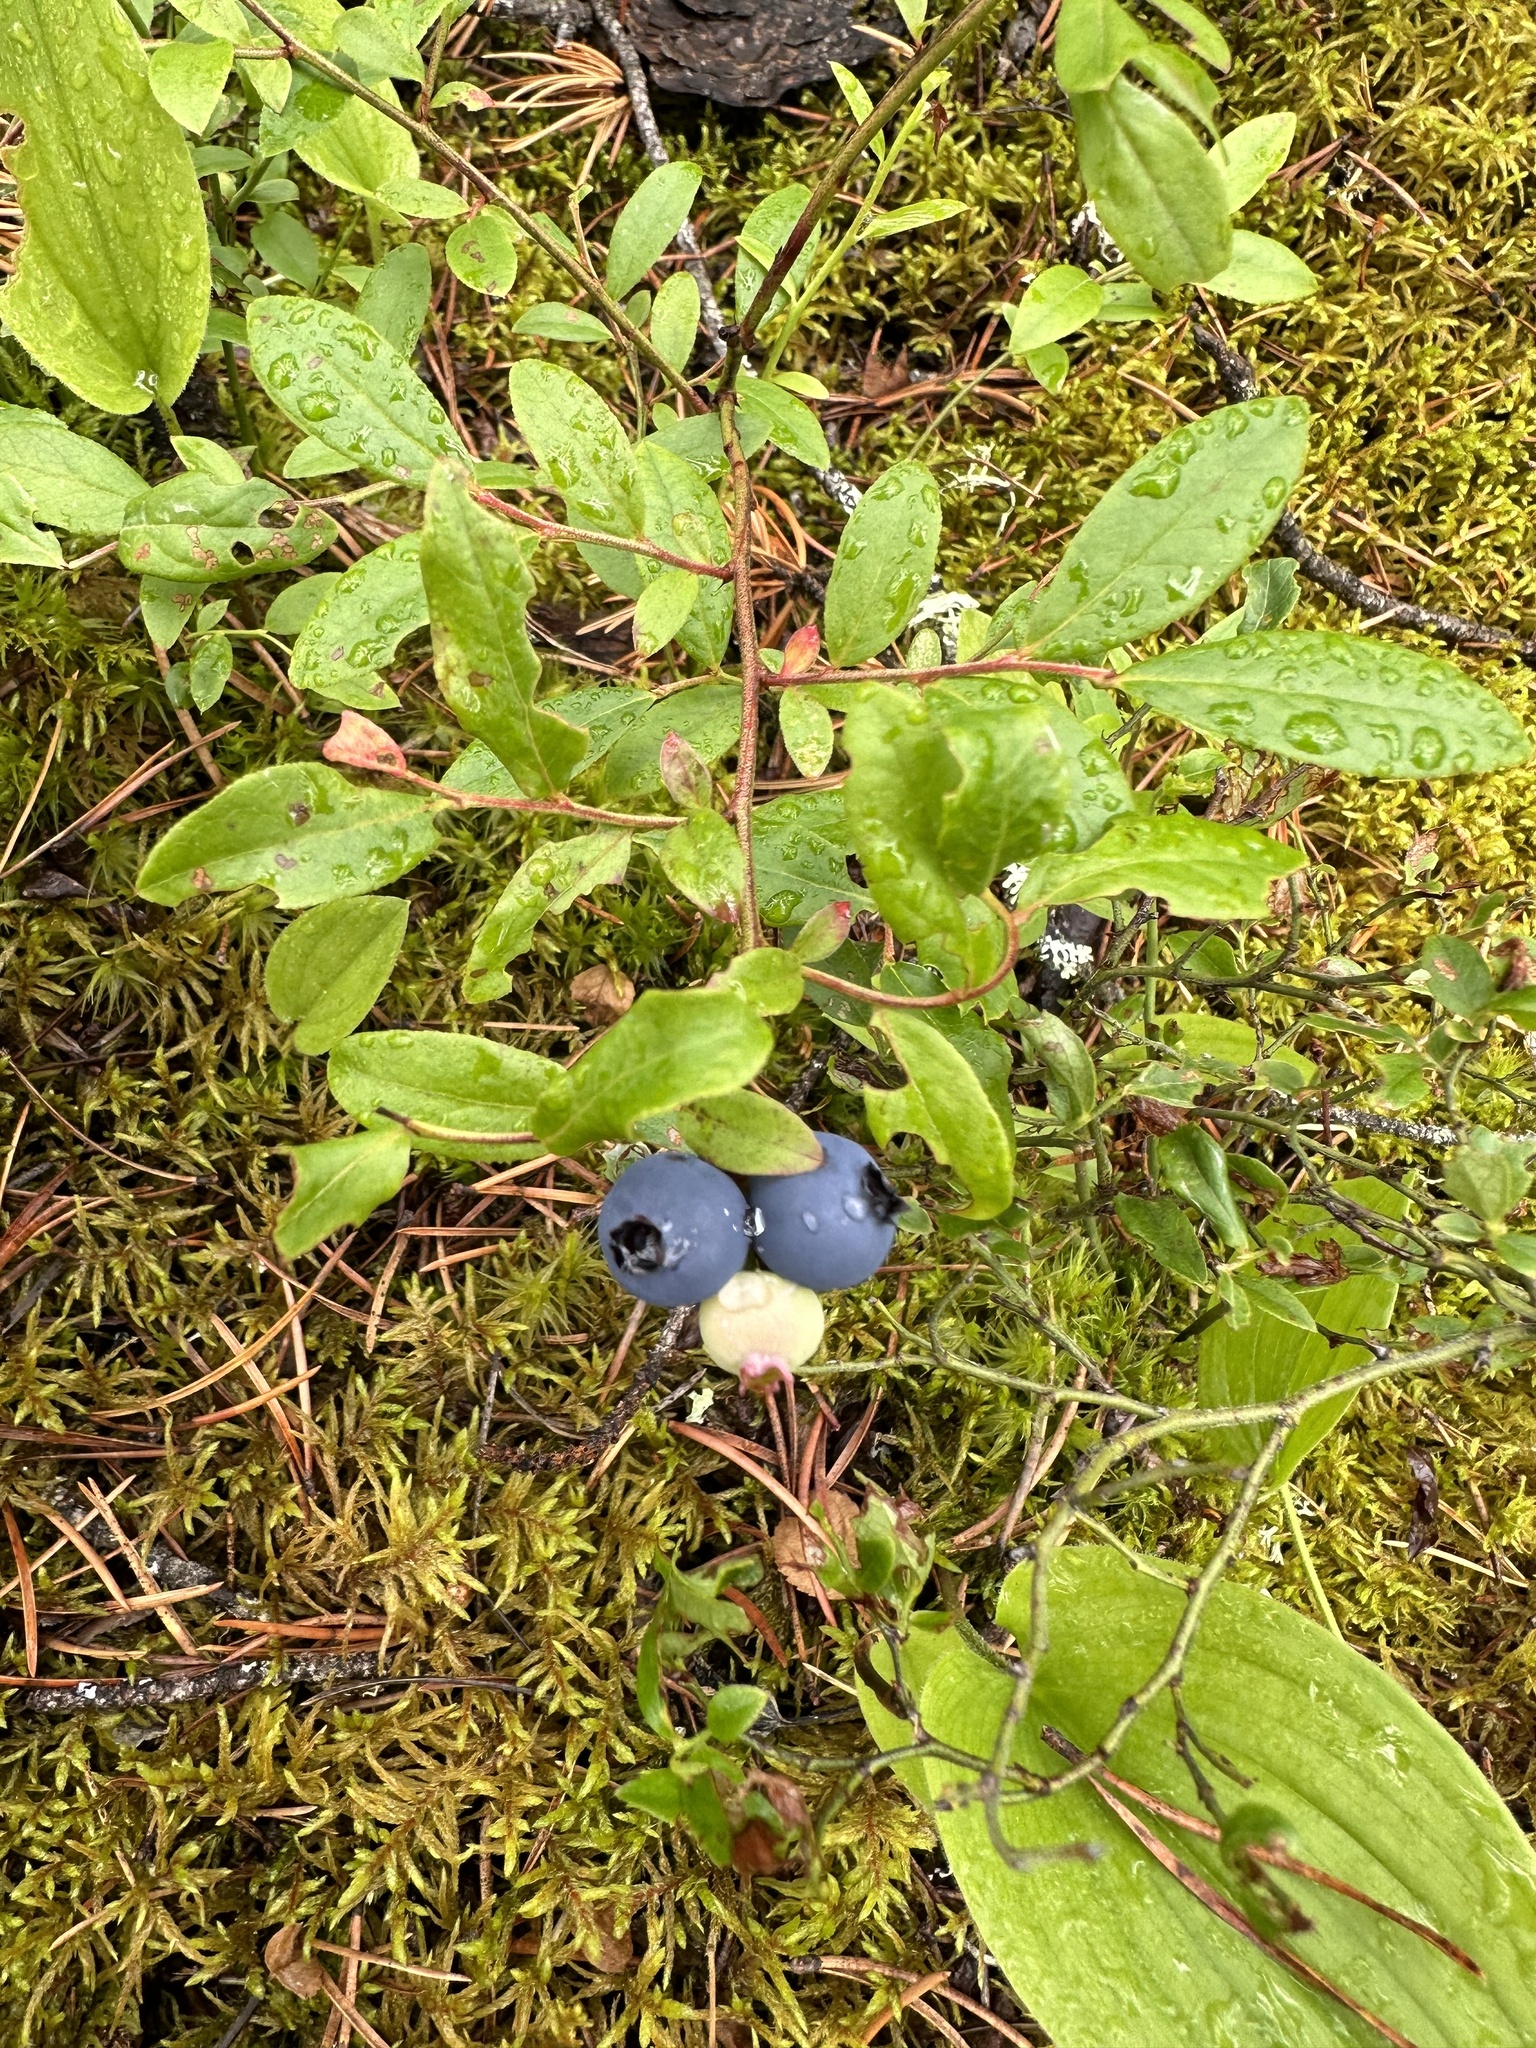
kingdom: Plantae
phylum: Tracheophyta
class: Magnoliopsida
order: Ericales
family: Ericaceae
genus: Vaccinium
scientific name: Vaccinium angustifolium
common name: Early lowbush blueberry
